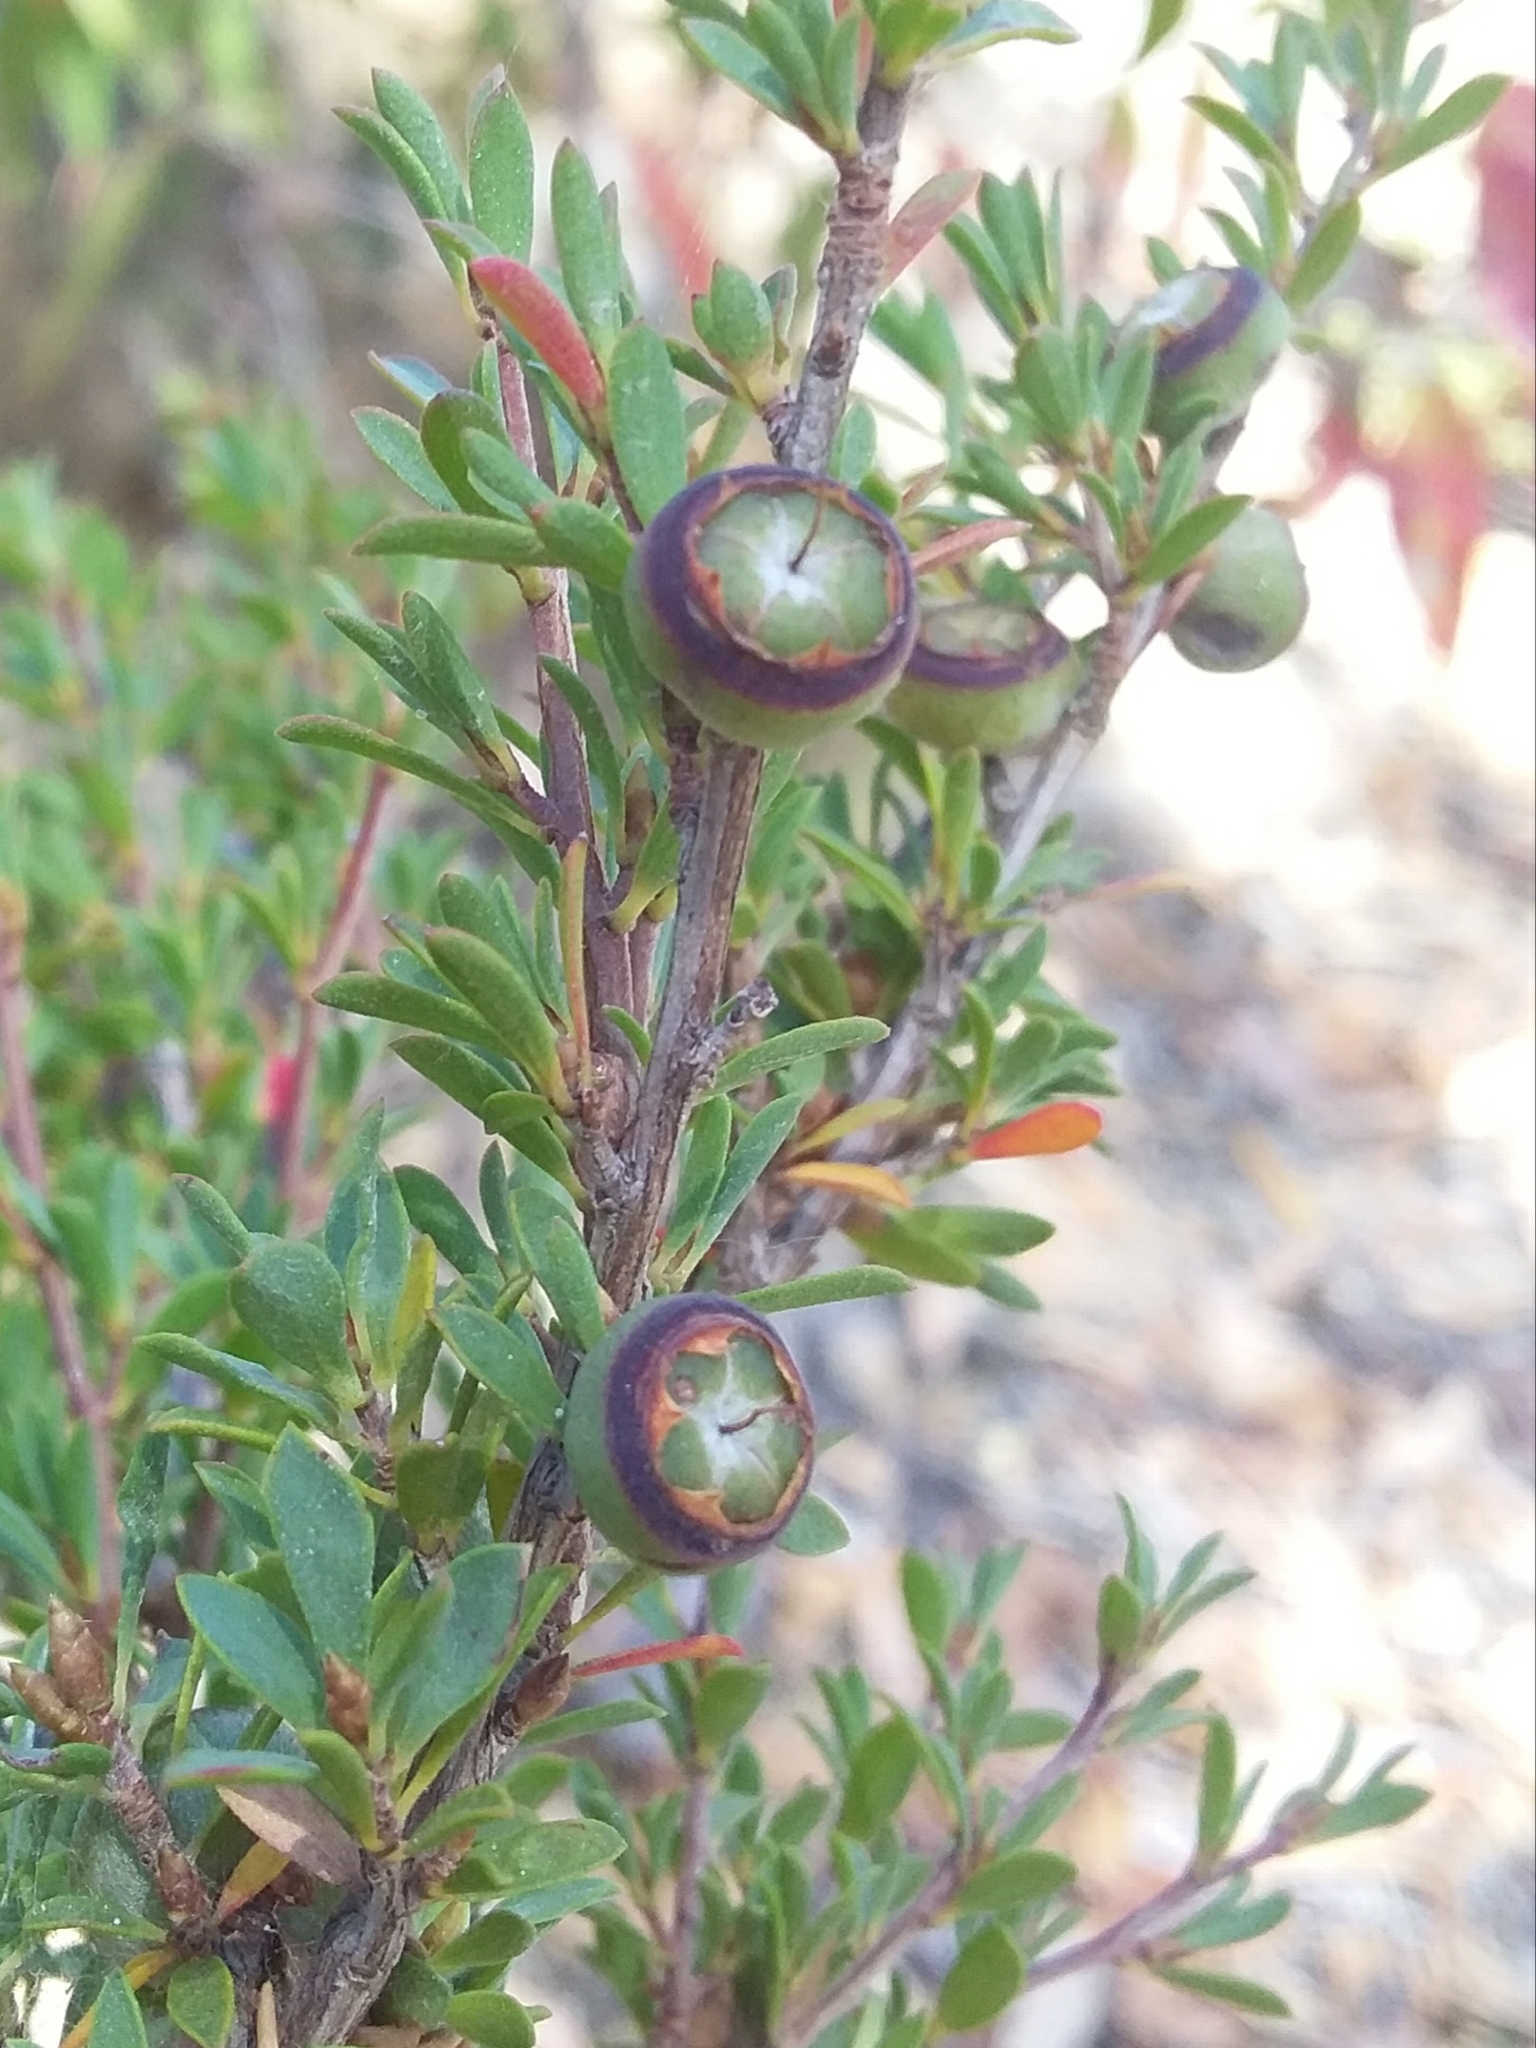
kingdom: Plantae
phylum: Tracheophyta
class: Magnoliopsida
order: Myrtales
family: Myrtaceae
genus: Leptospermum
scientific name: Leptospermum myrsinoides
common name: Heath teatree
